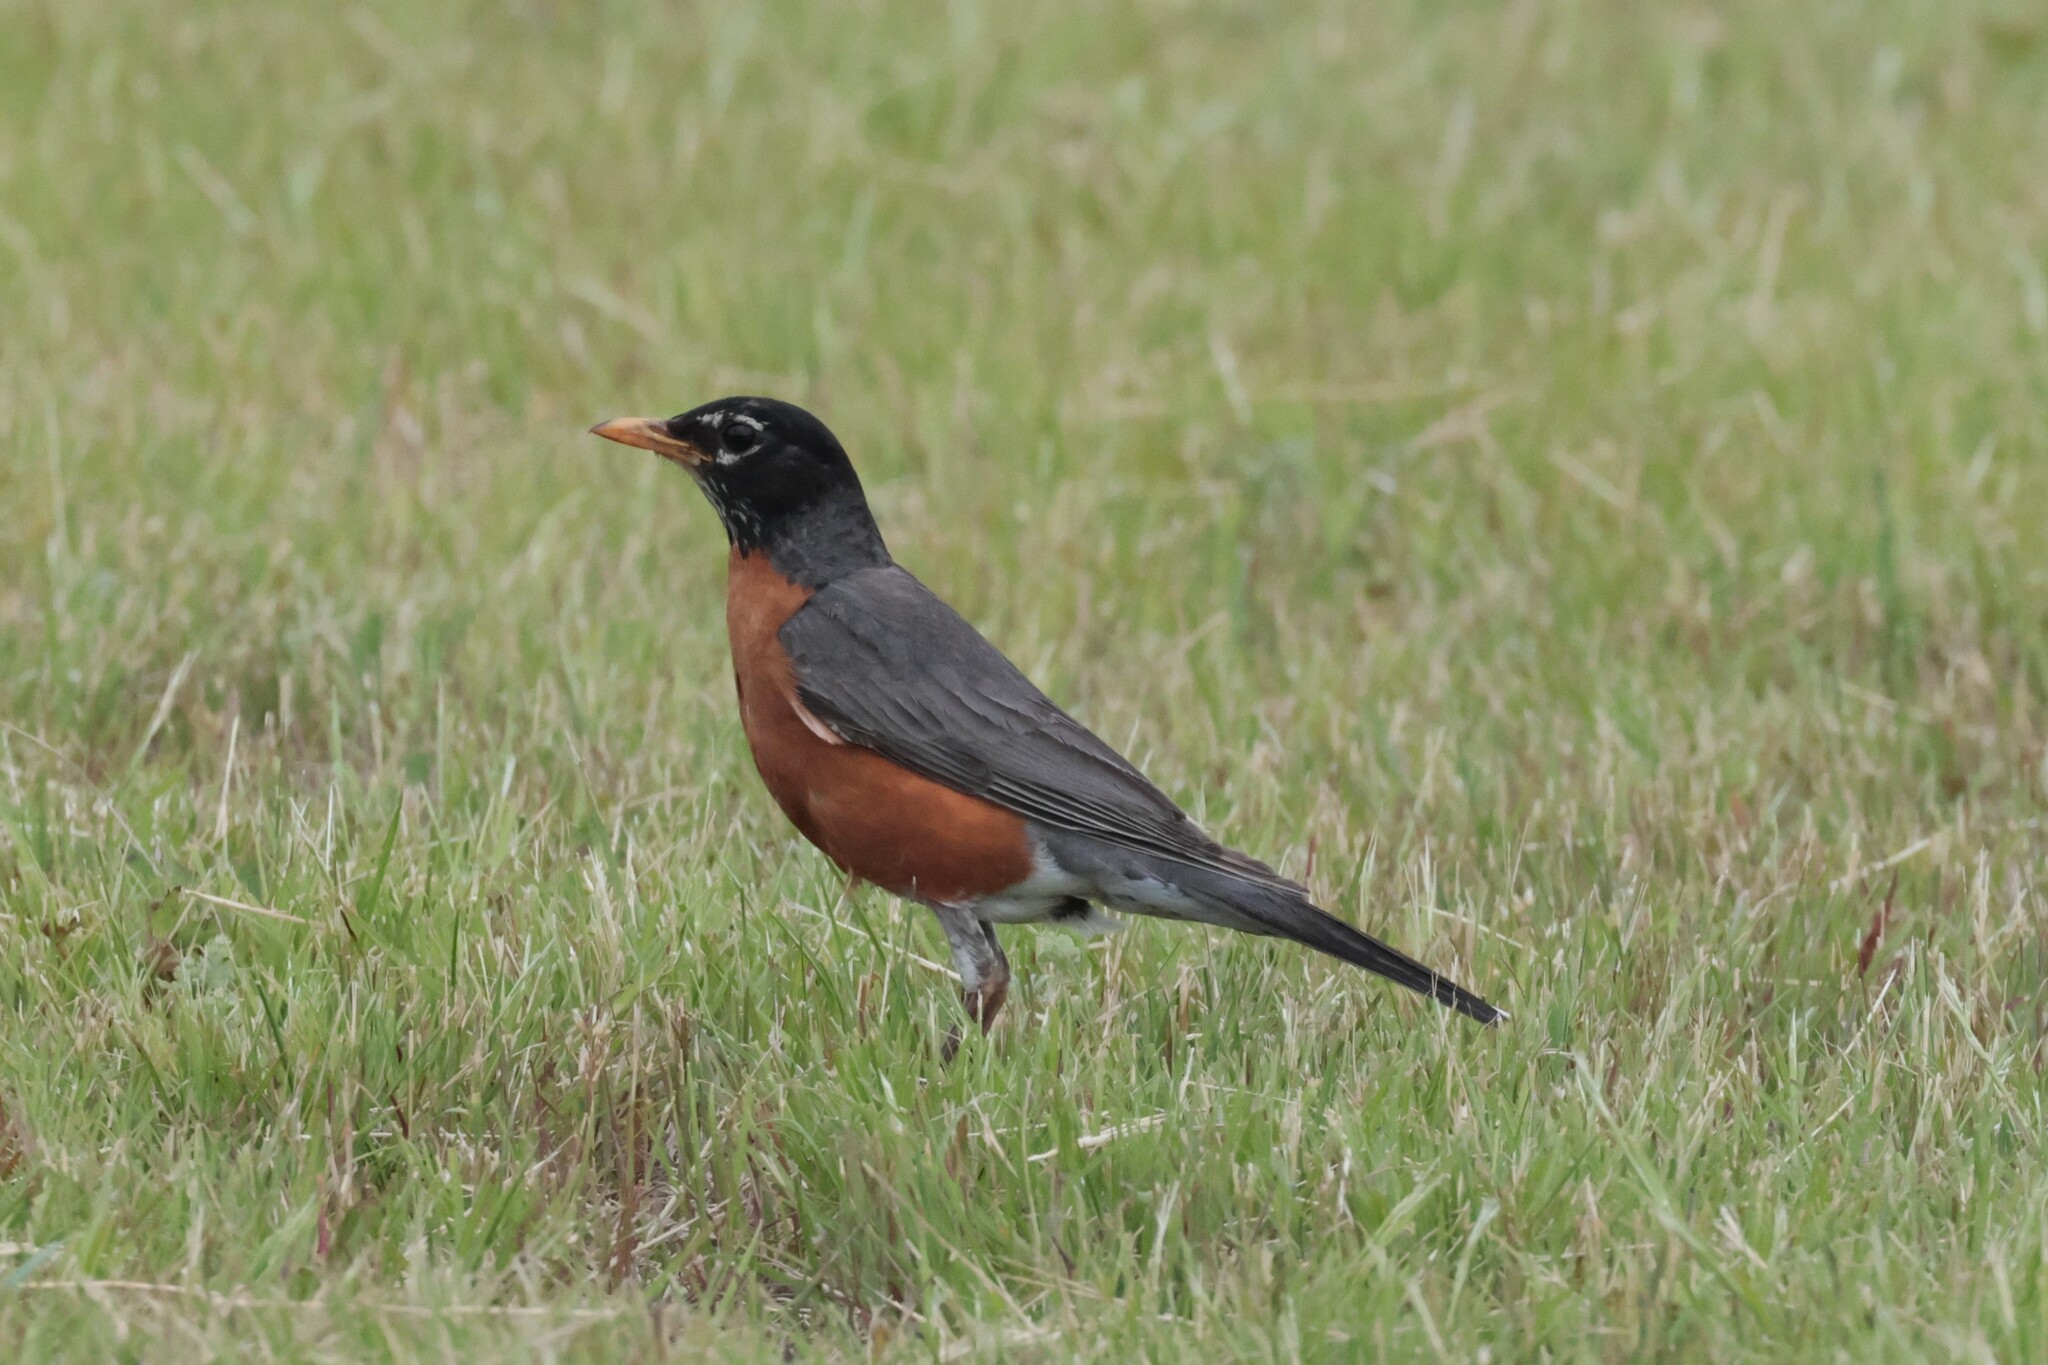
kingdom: Animalia
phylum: Chordata
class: Aves
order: Passeriformes
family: Turdidae
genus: Turdus
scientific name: Turdus migratorius
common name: American robin
